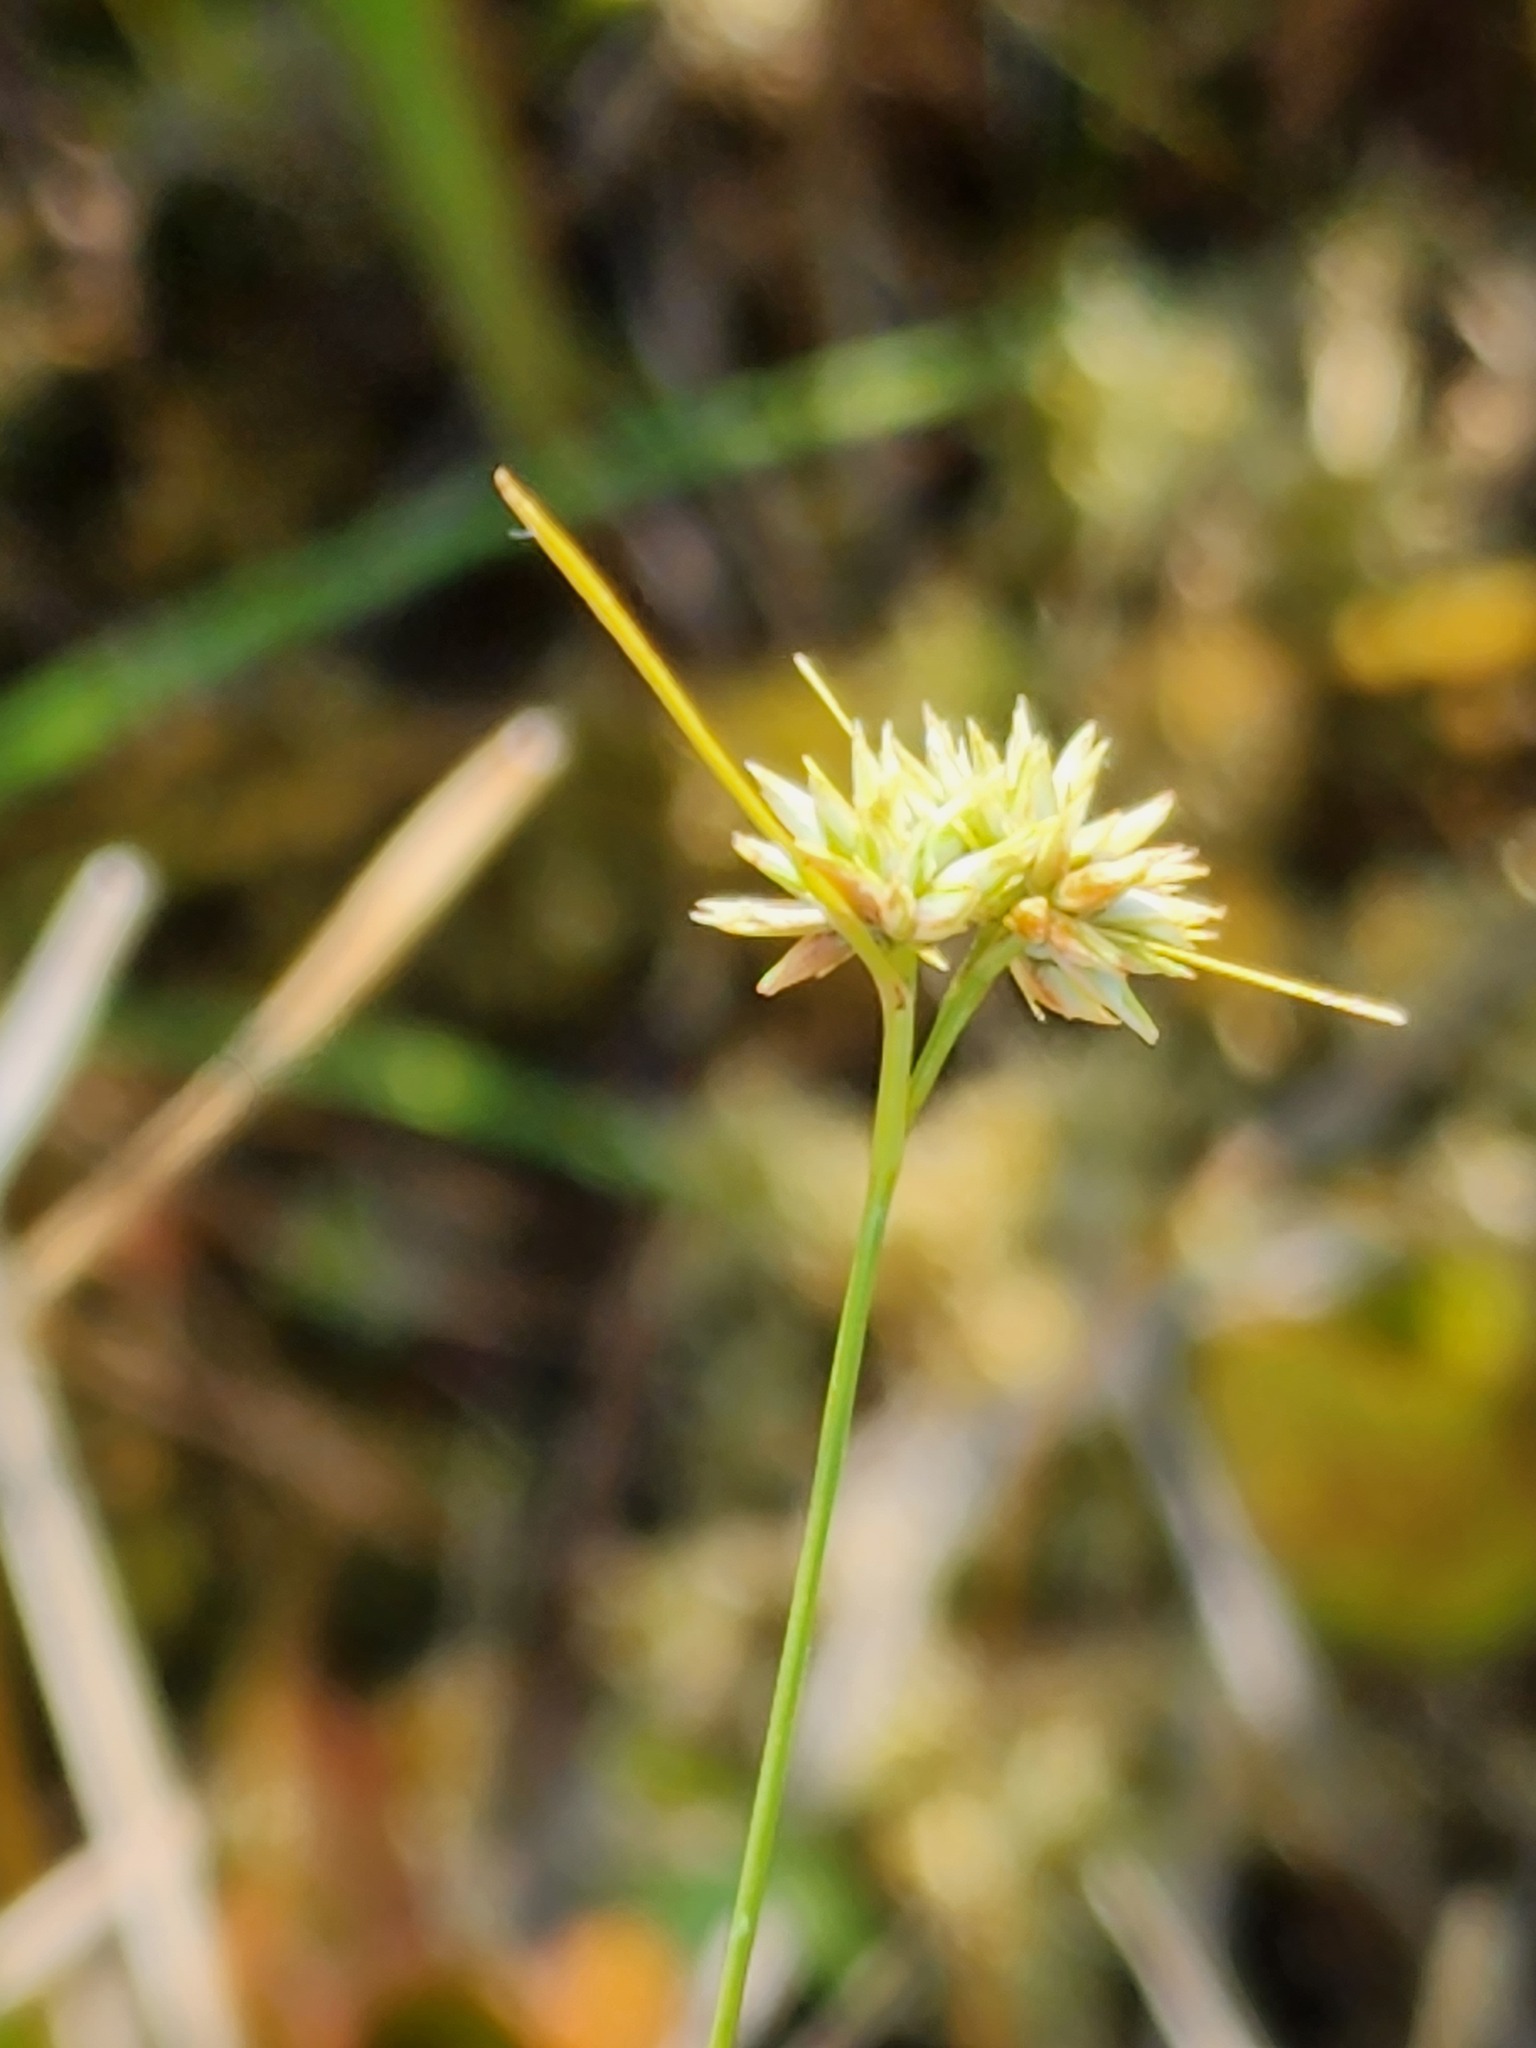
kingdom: Plantae
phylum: Tracheophyta
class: Liliopsida
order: Poales
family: Cyperaceae
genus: Rhynchospora
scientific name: Rhynchospora alba
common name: White beak-sedge
